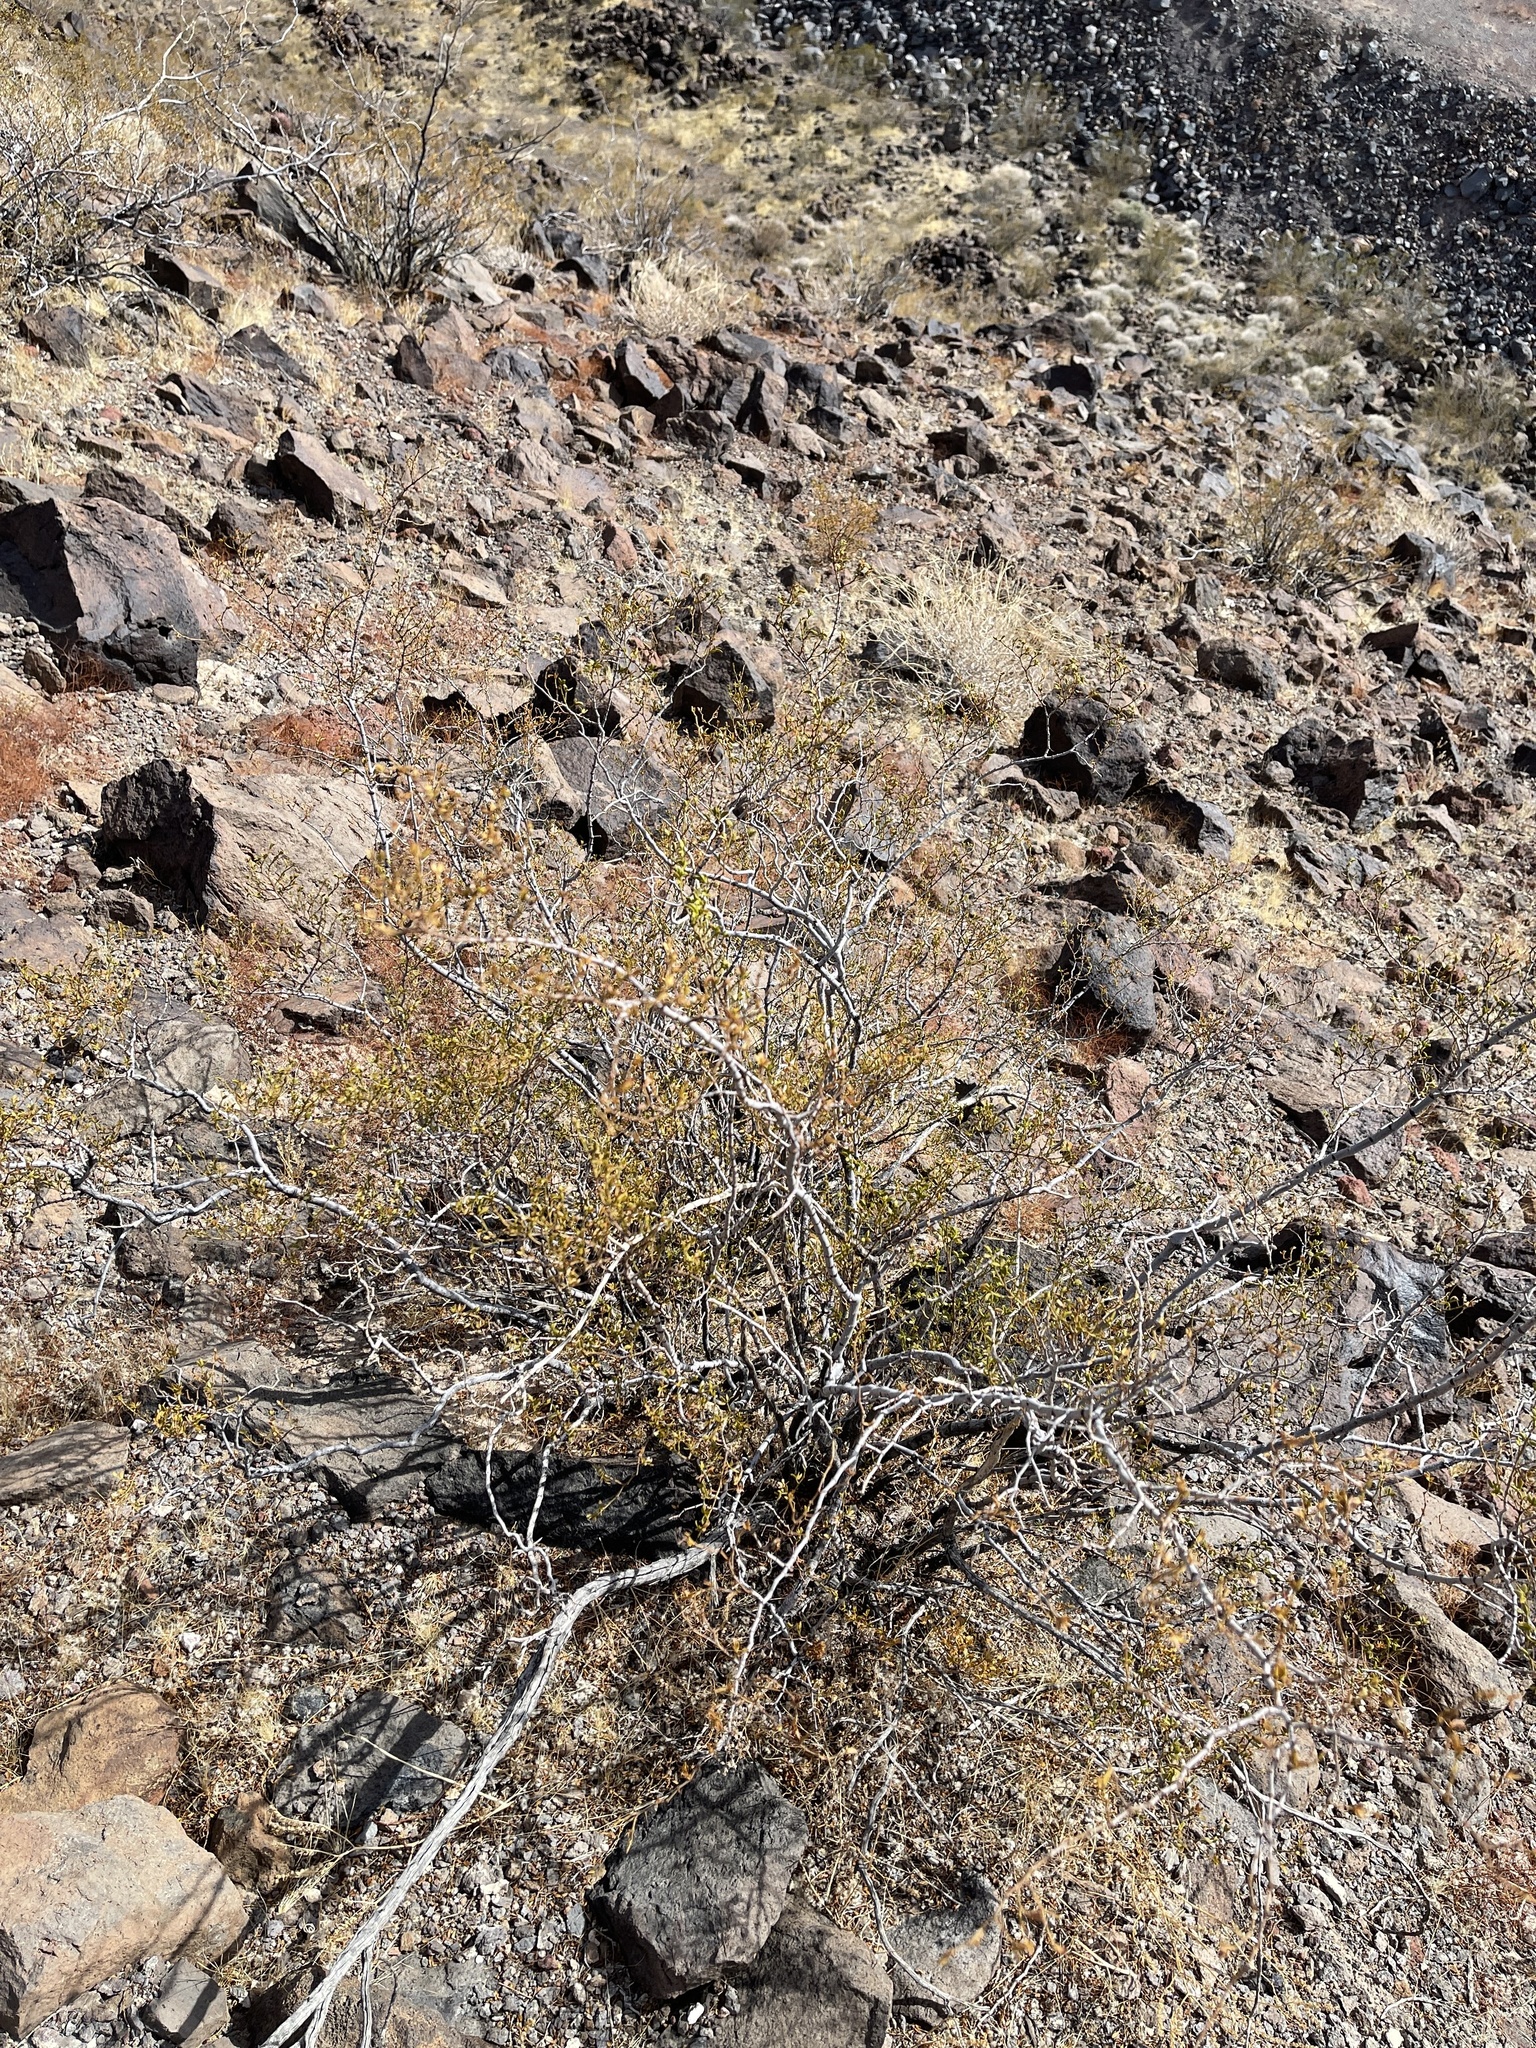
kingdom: Plantae
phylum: Tracheophyta
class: Magnoliopsida
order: Zygophyllales
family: Zygophyllaceae
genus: Larrea
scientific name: Larrea tridentata
